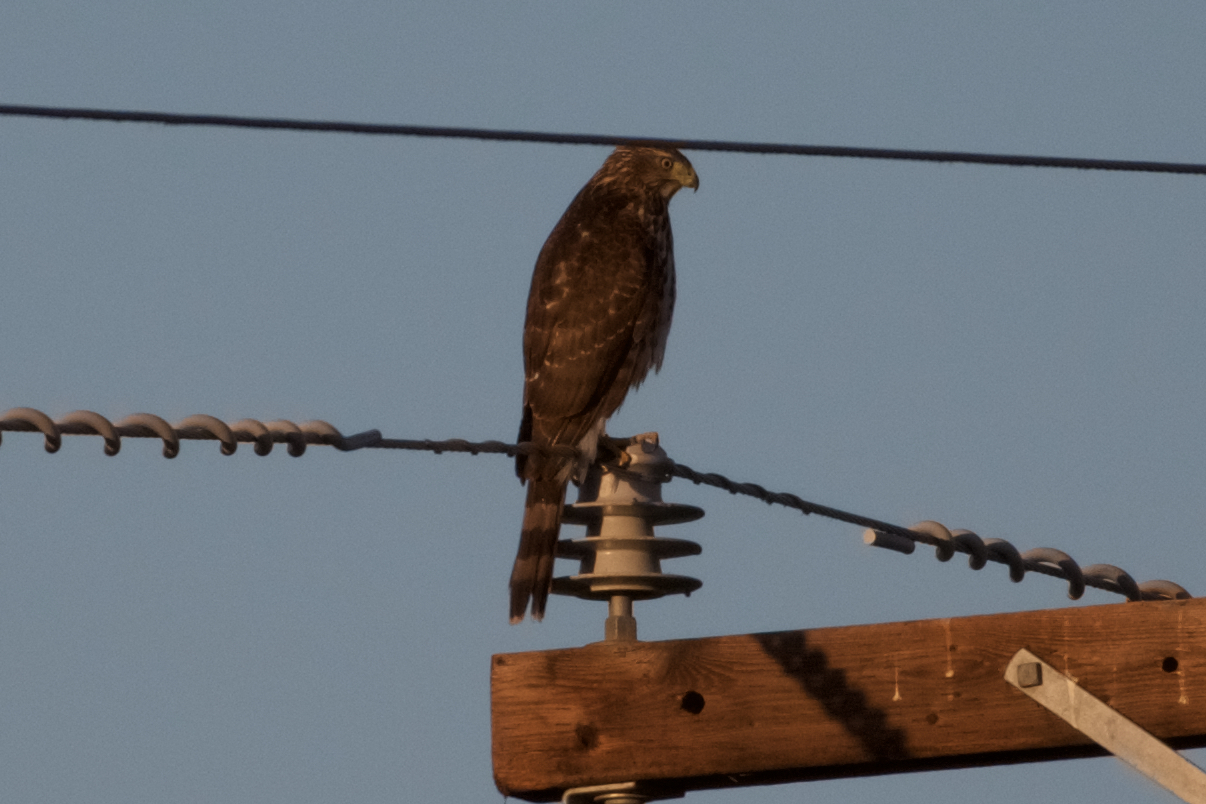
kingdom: Animalia
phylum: Chordata
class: Aves
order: Accipitriformes
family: Accipitridae
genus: Accipiter
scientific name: Accipiter cooperii
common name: Cooper's hawk
